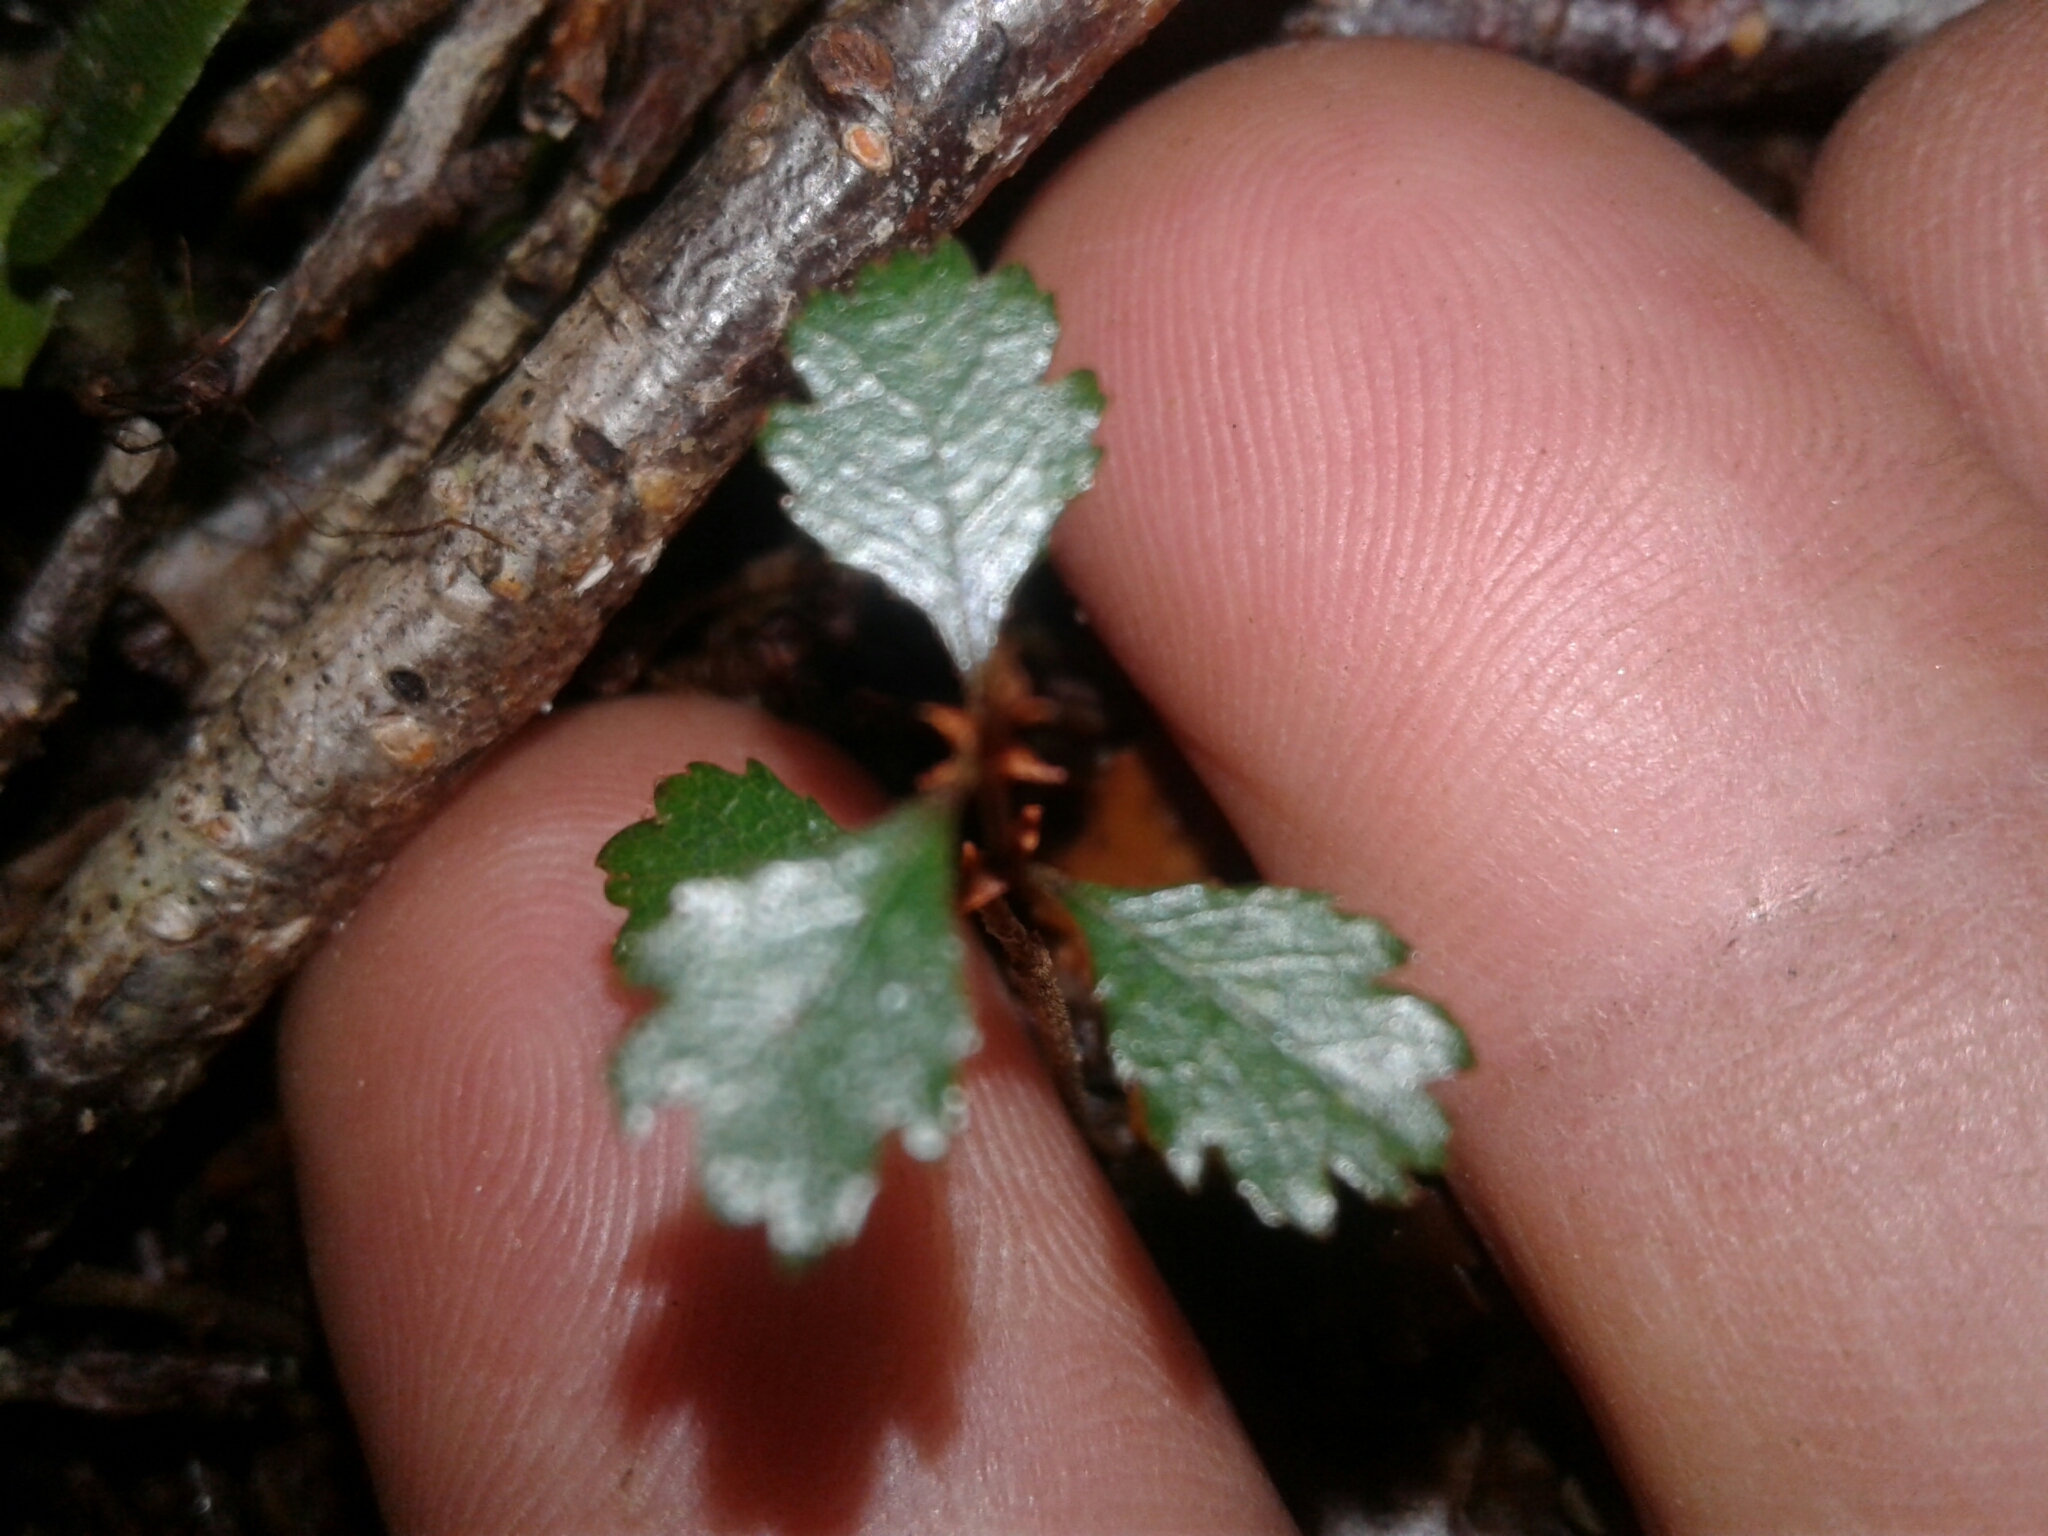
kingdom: Plantae
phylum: Tracheophyta
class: Magnoliopsida
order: Fagales
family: Nothofagaceae
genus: Nothofagus
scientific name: Nothofagus menziesii
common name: Silver beech
